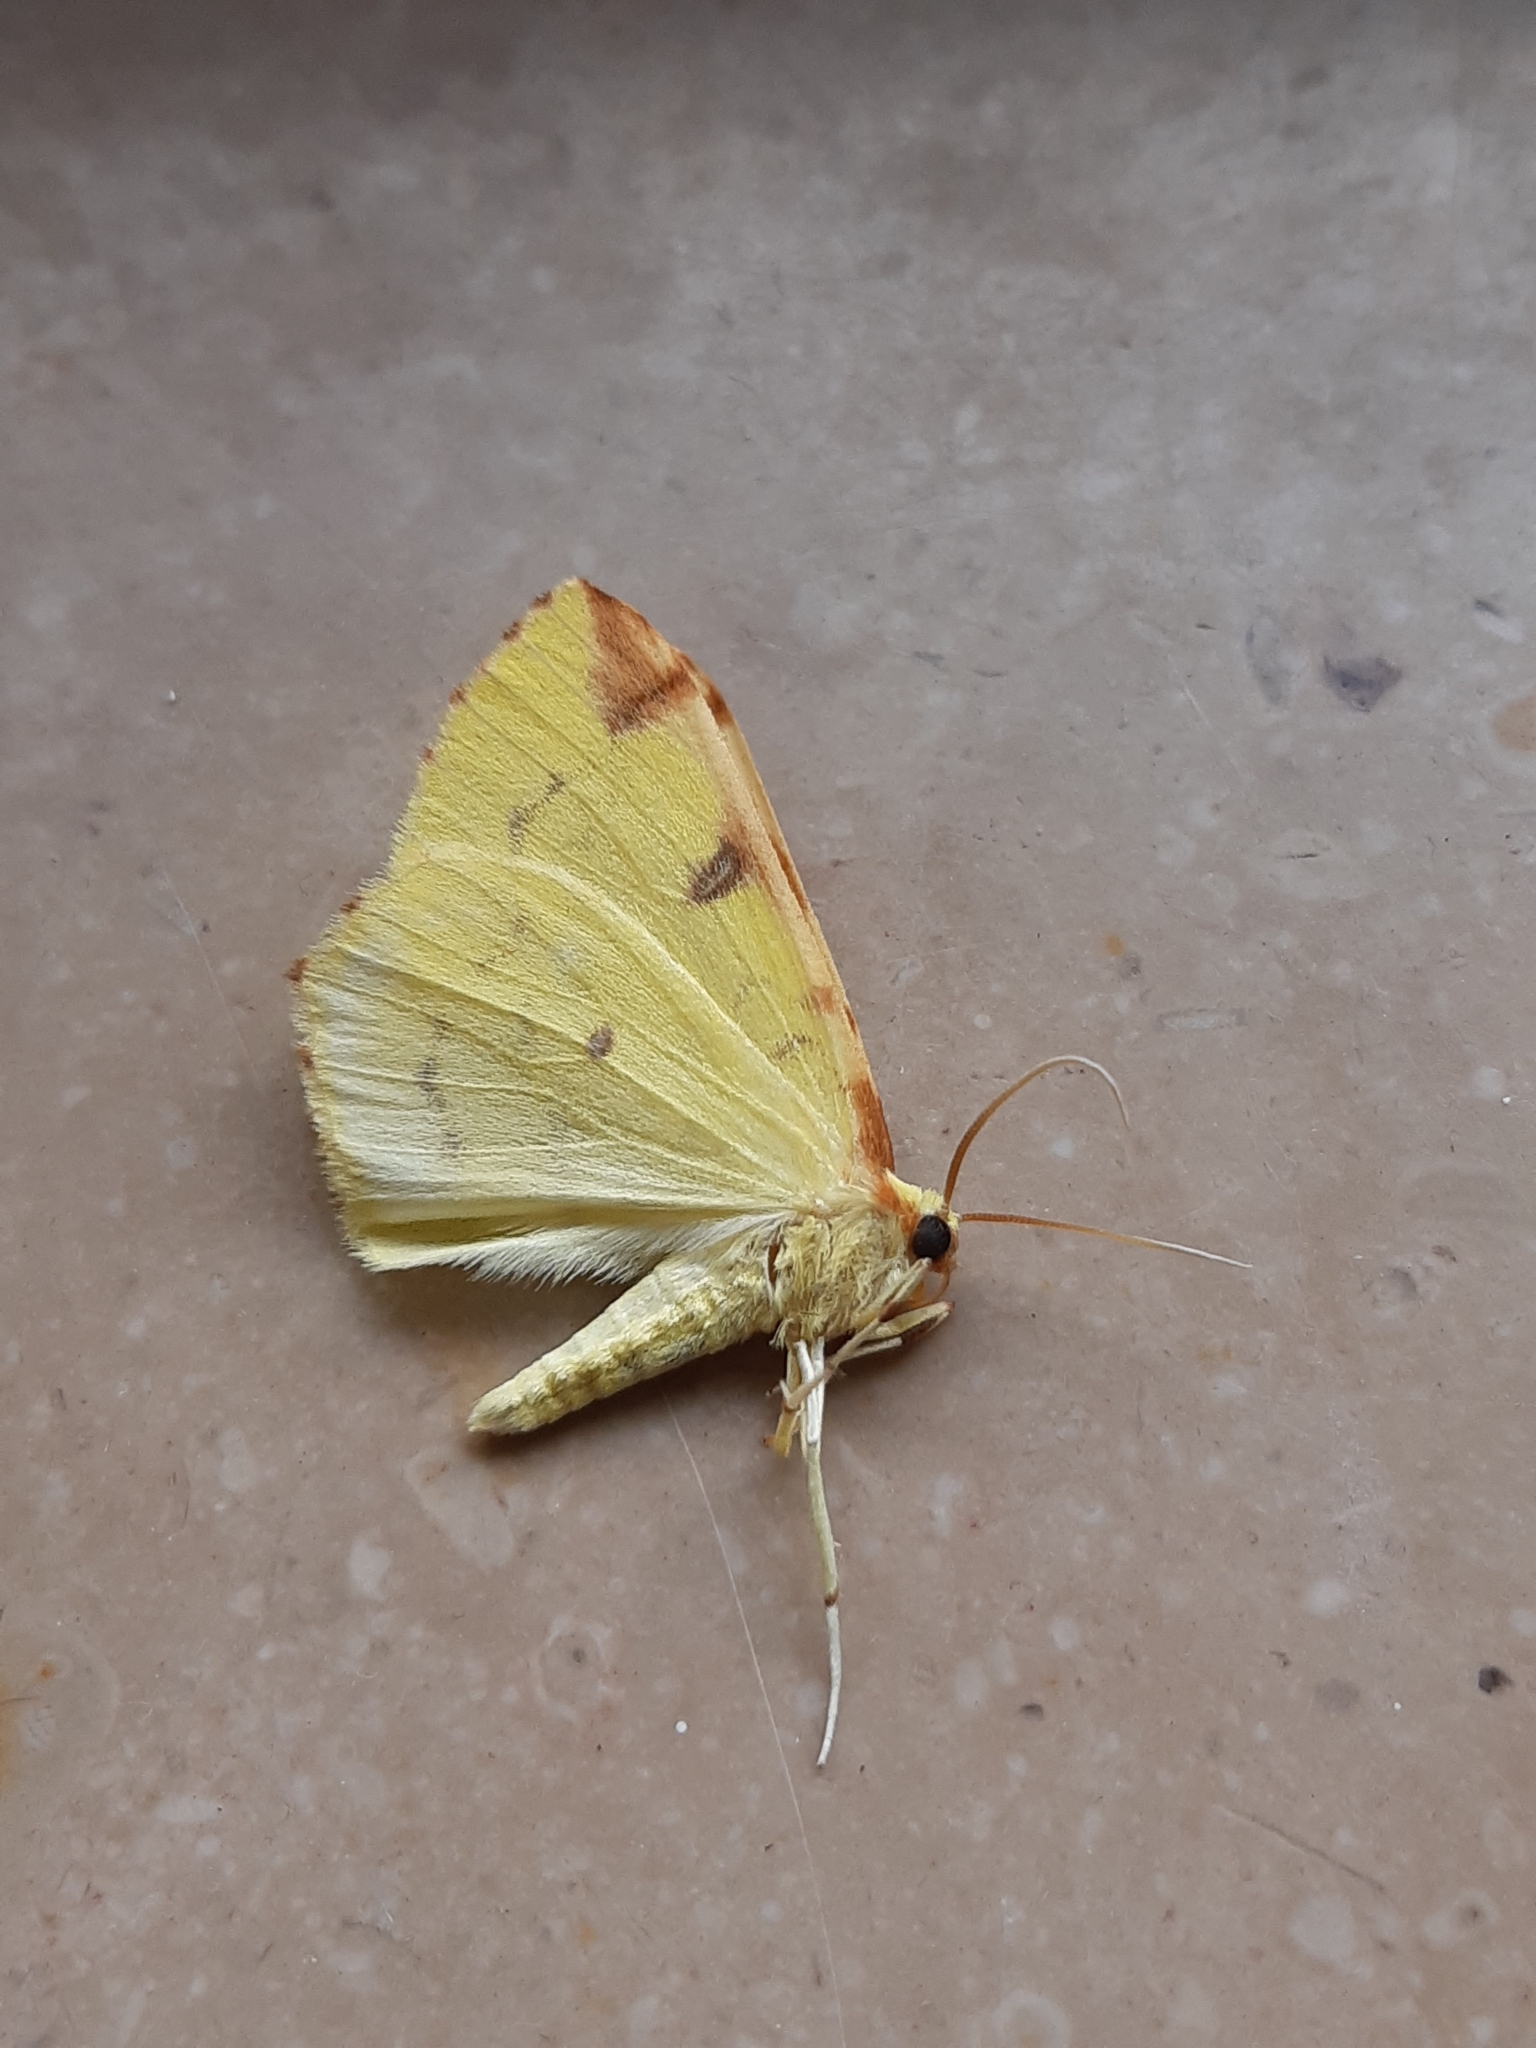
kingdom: Animalia
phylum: Arthropoda
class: Insecta
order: Lepidoptera
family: Geometridae
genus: Opisthograptis
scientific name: Opisthograptis luteolata
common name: Brimstone moth
